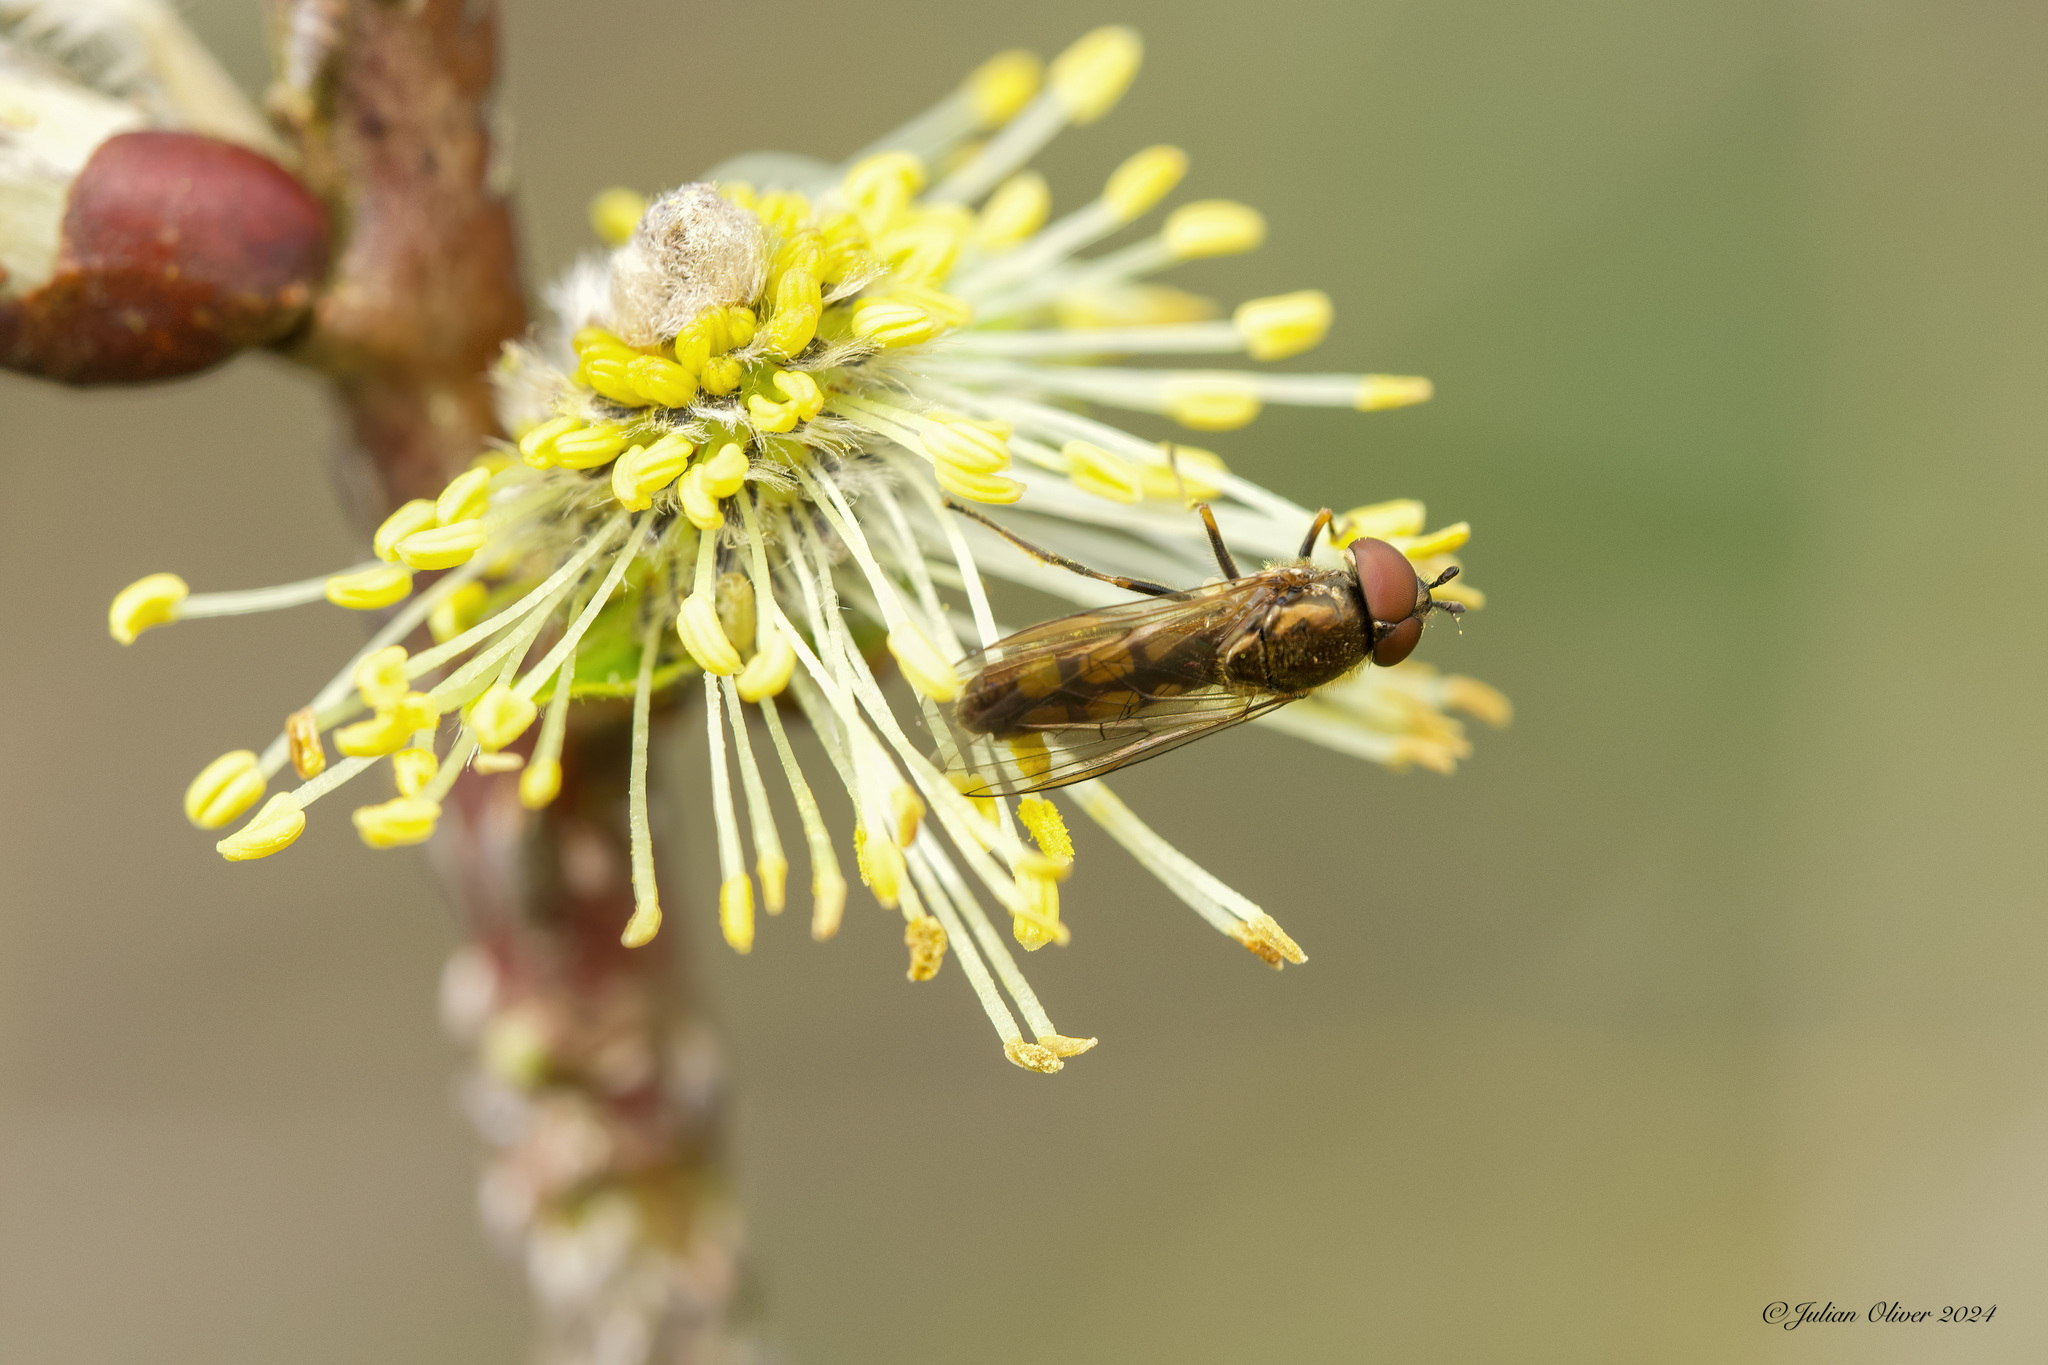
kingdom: Animalia
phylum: Arthropoda
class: Insecta
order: Diptera
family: Syrphidae
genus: Melanostoma
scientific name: Melanostoma mellina
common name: Hover fly
